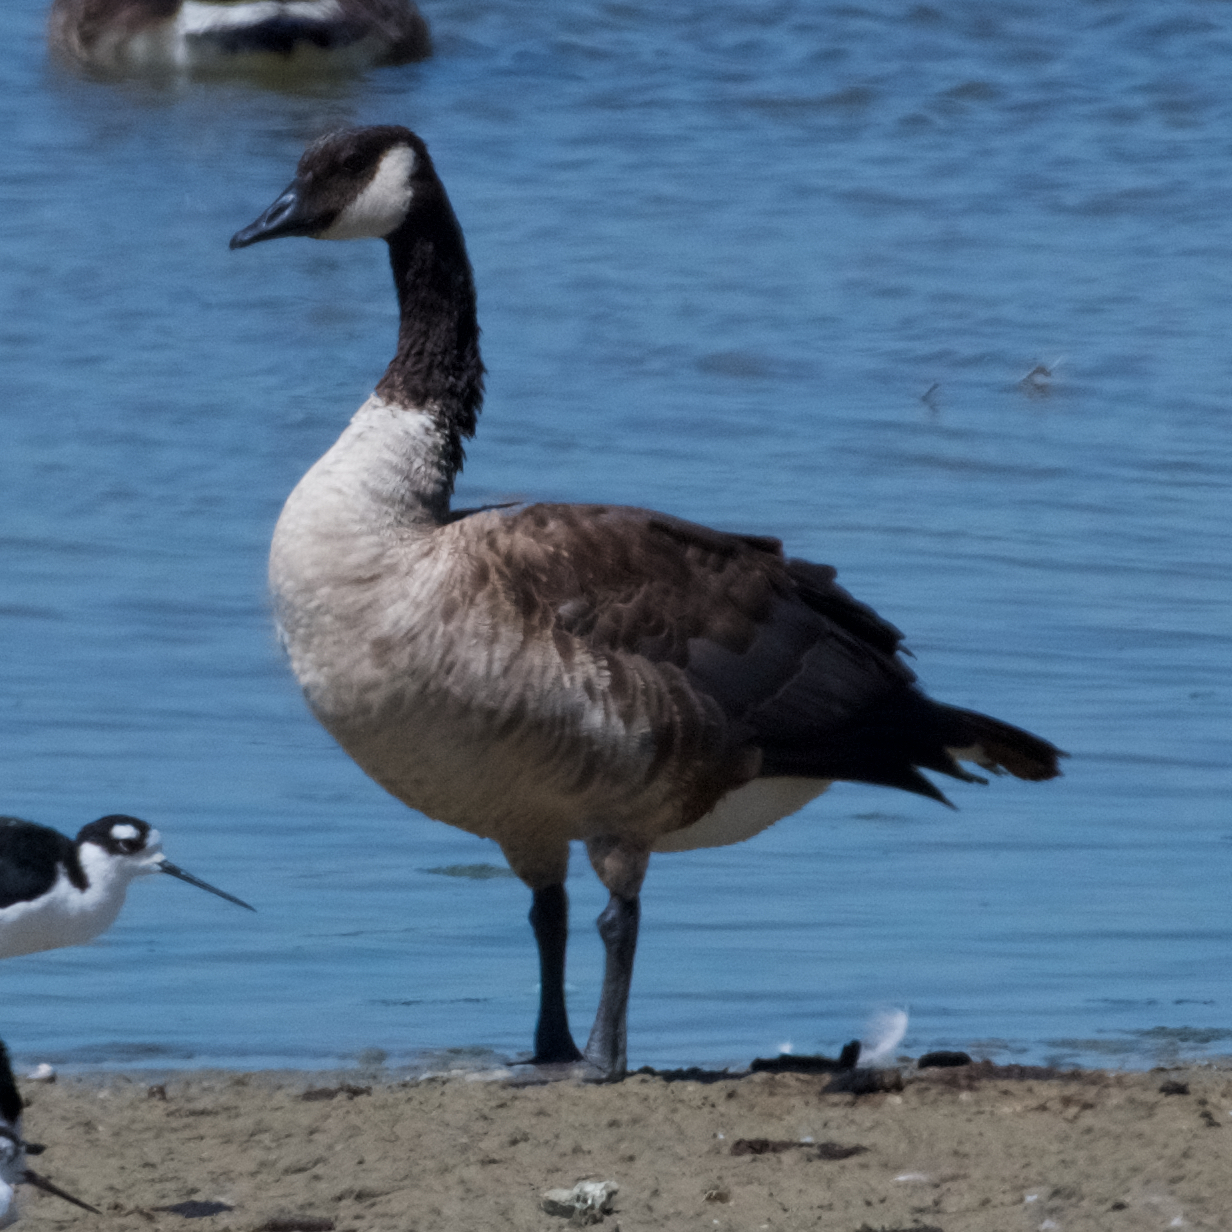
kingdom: Animalia
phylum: Chordata
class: Aves
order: Anseriformes
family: Anatidae
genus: Branta
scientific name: Branta canadensis
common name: Canada goose
